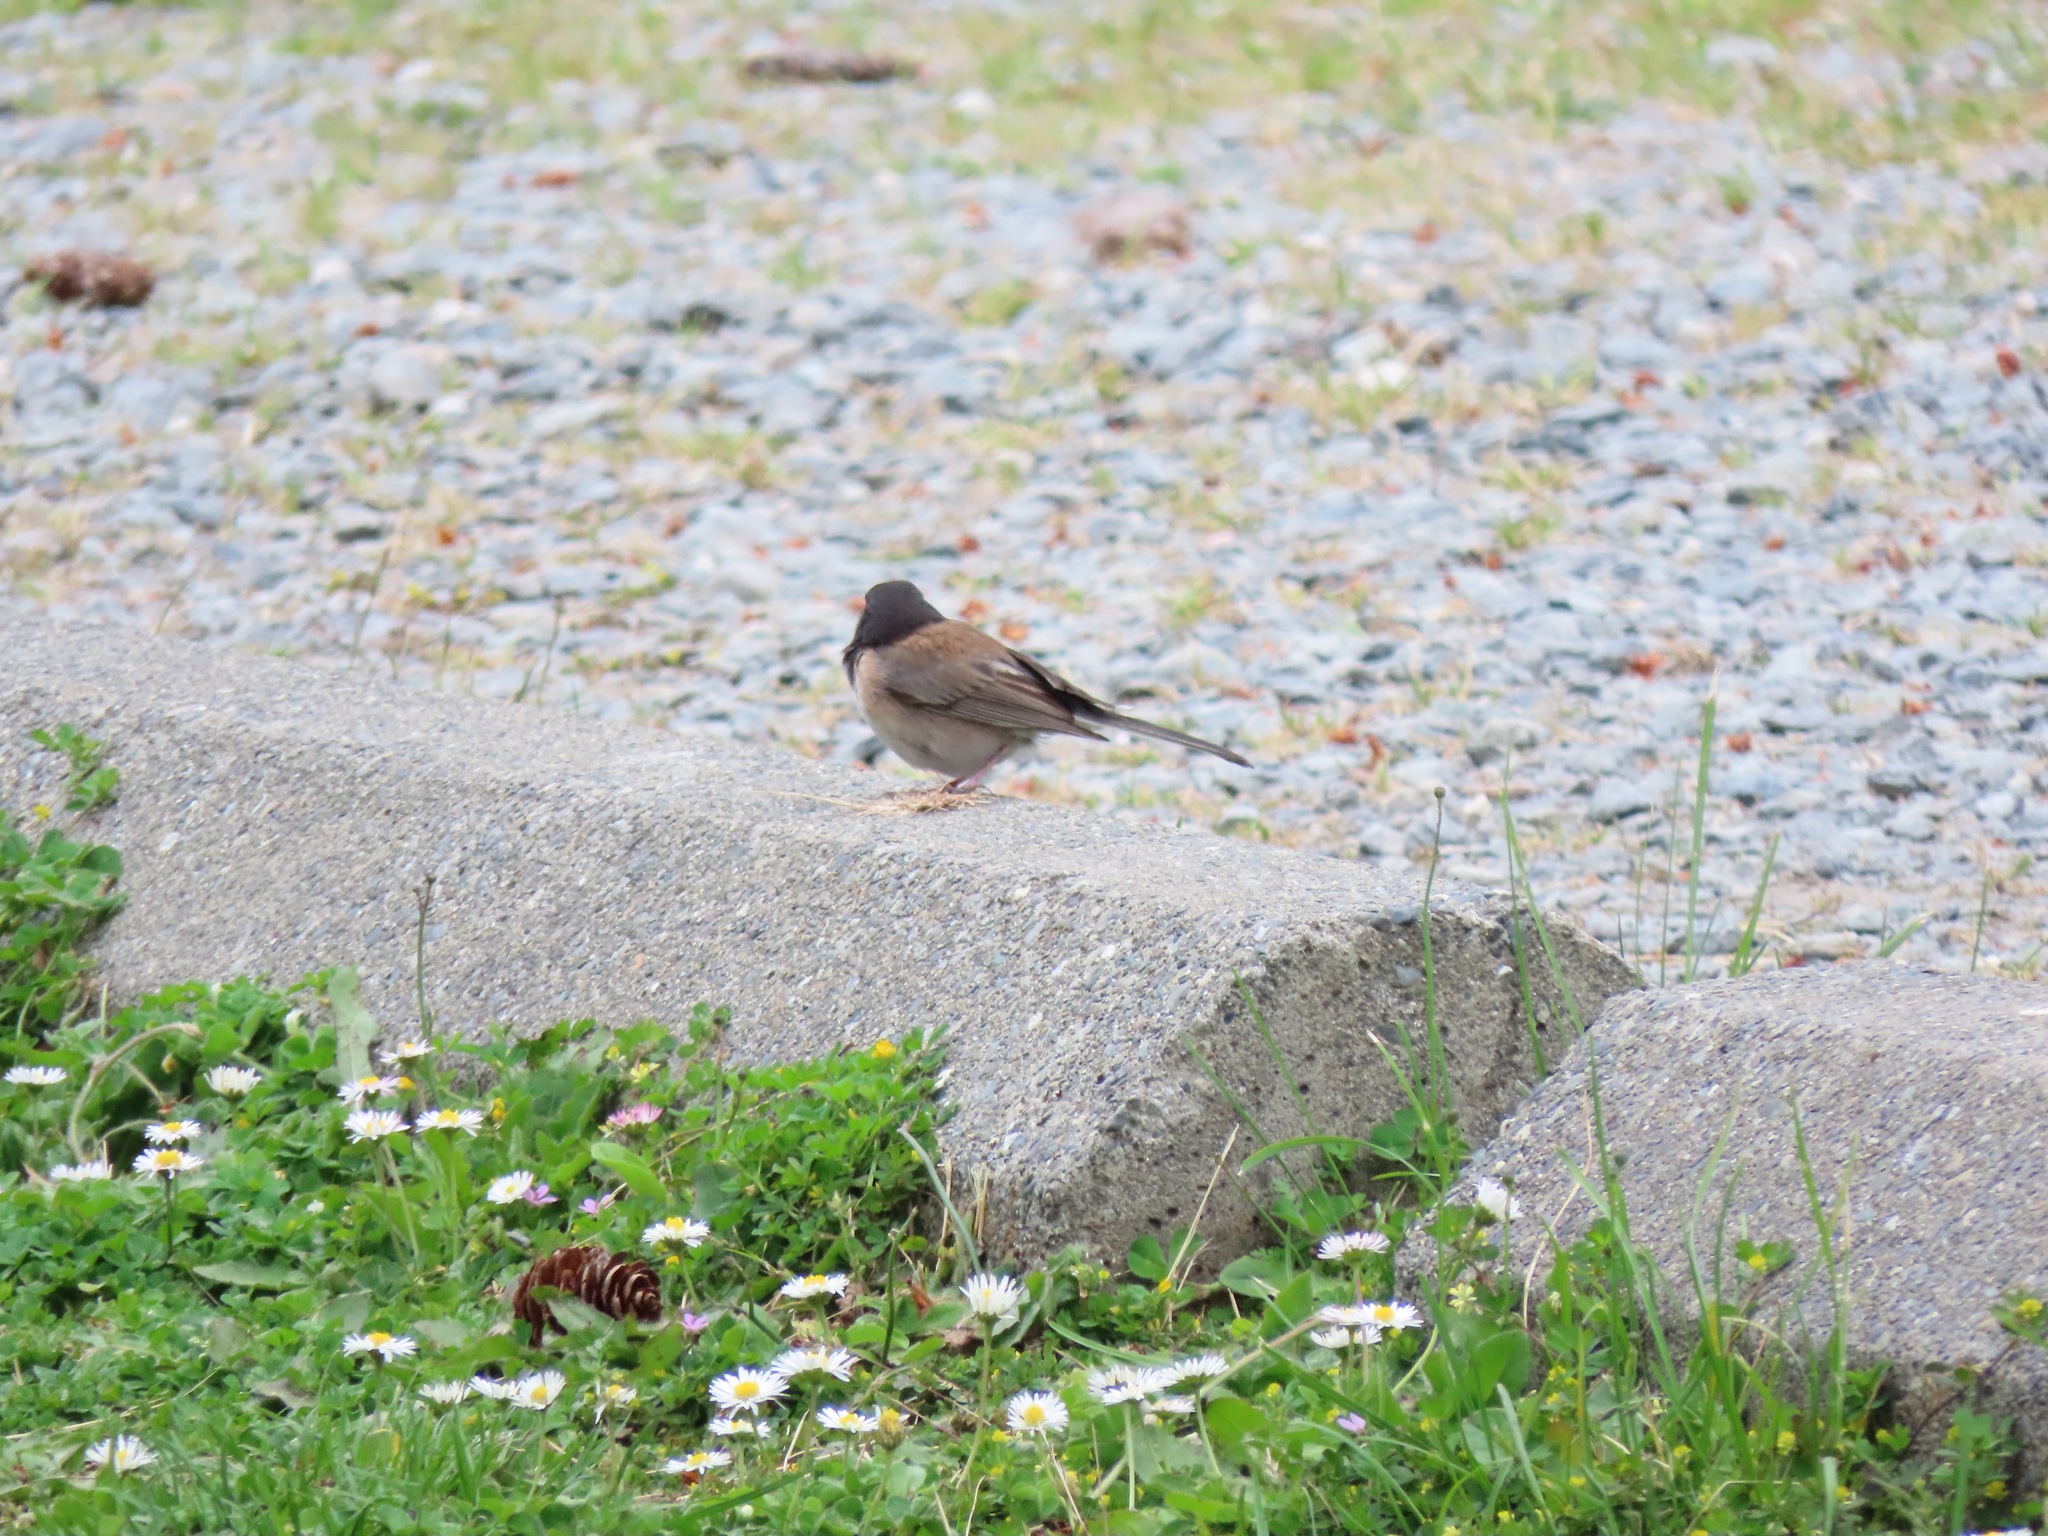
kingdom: Animalia
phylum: Chordata
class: Aves
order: Passeriformes
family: Passerellidae
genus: Junco
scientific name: Junco hyemalis
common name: Dark-eyed junco
